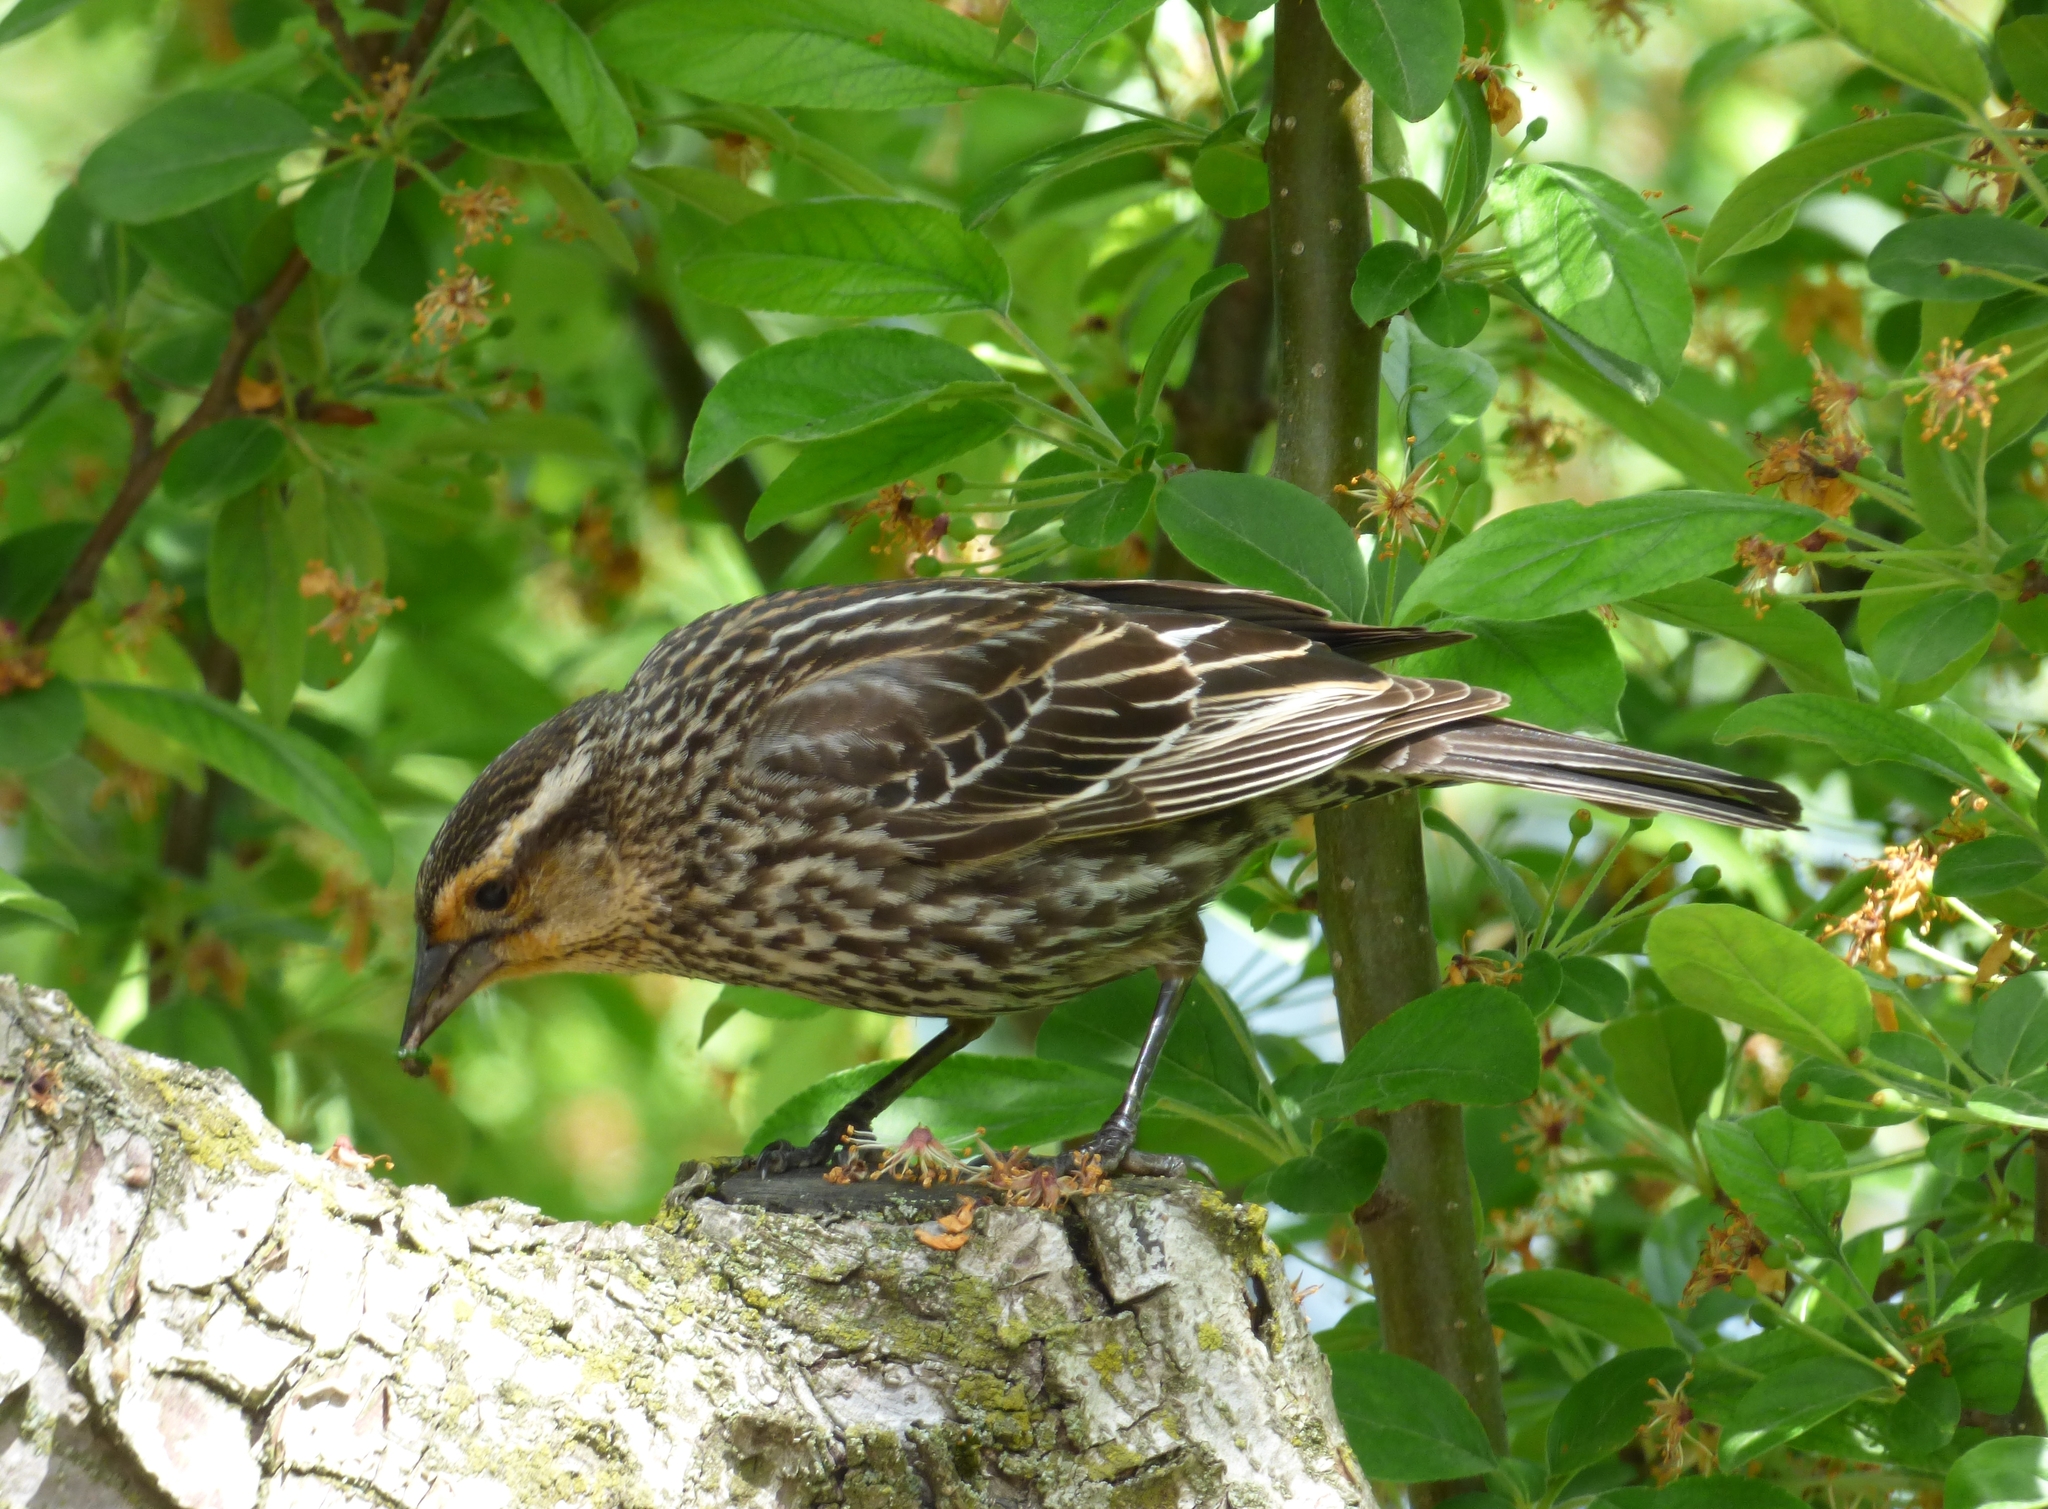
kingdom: Animalia
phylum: Chordata
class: Aves
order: Passeriformes
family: Icteridae
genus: Agelaius
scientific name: Agelaius phoeniceus
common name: Red-winged blackbird
